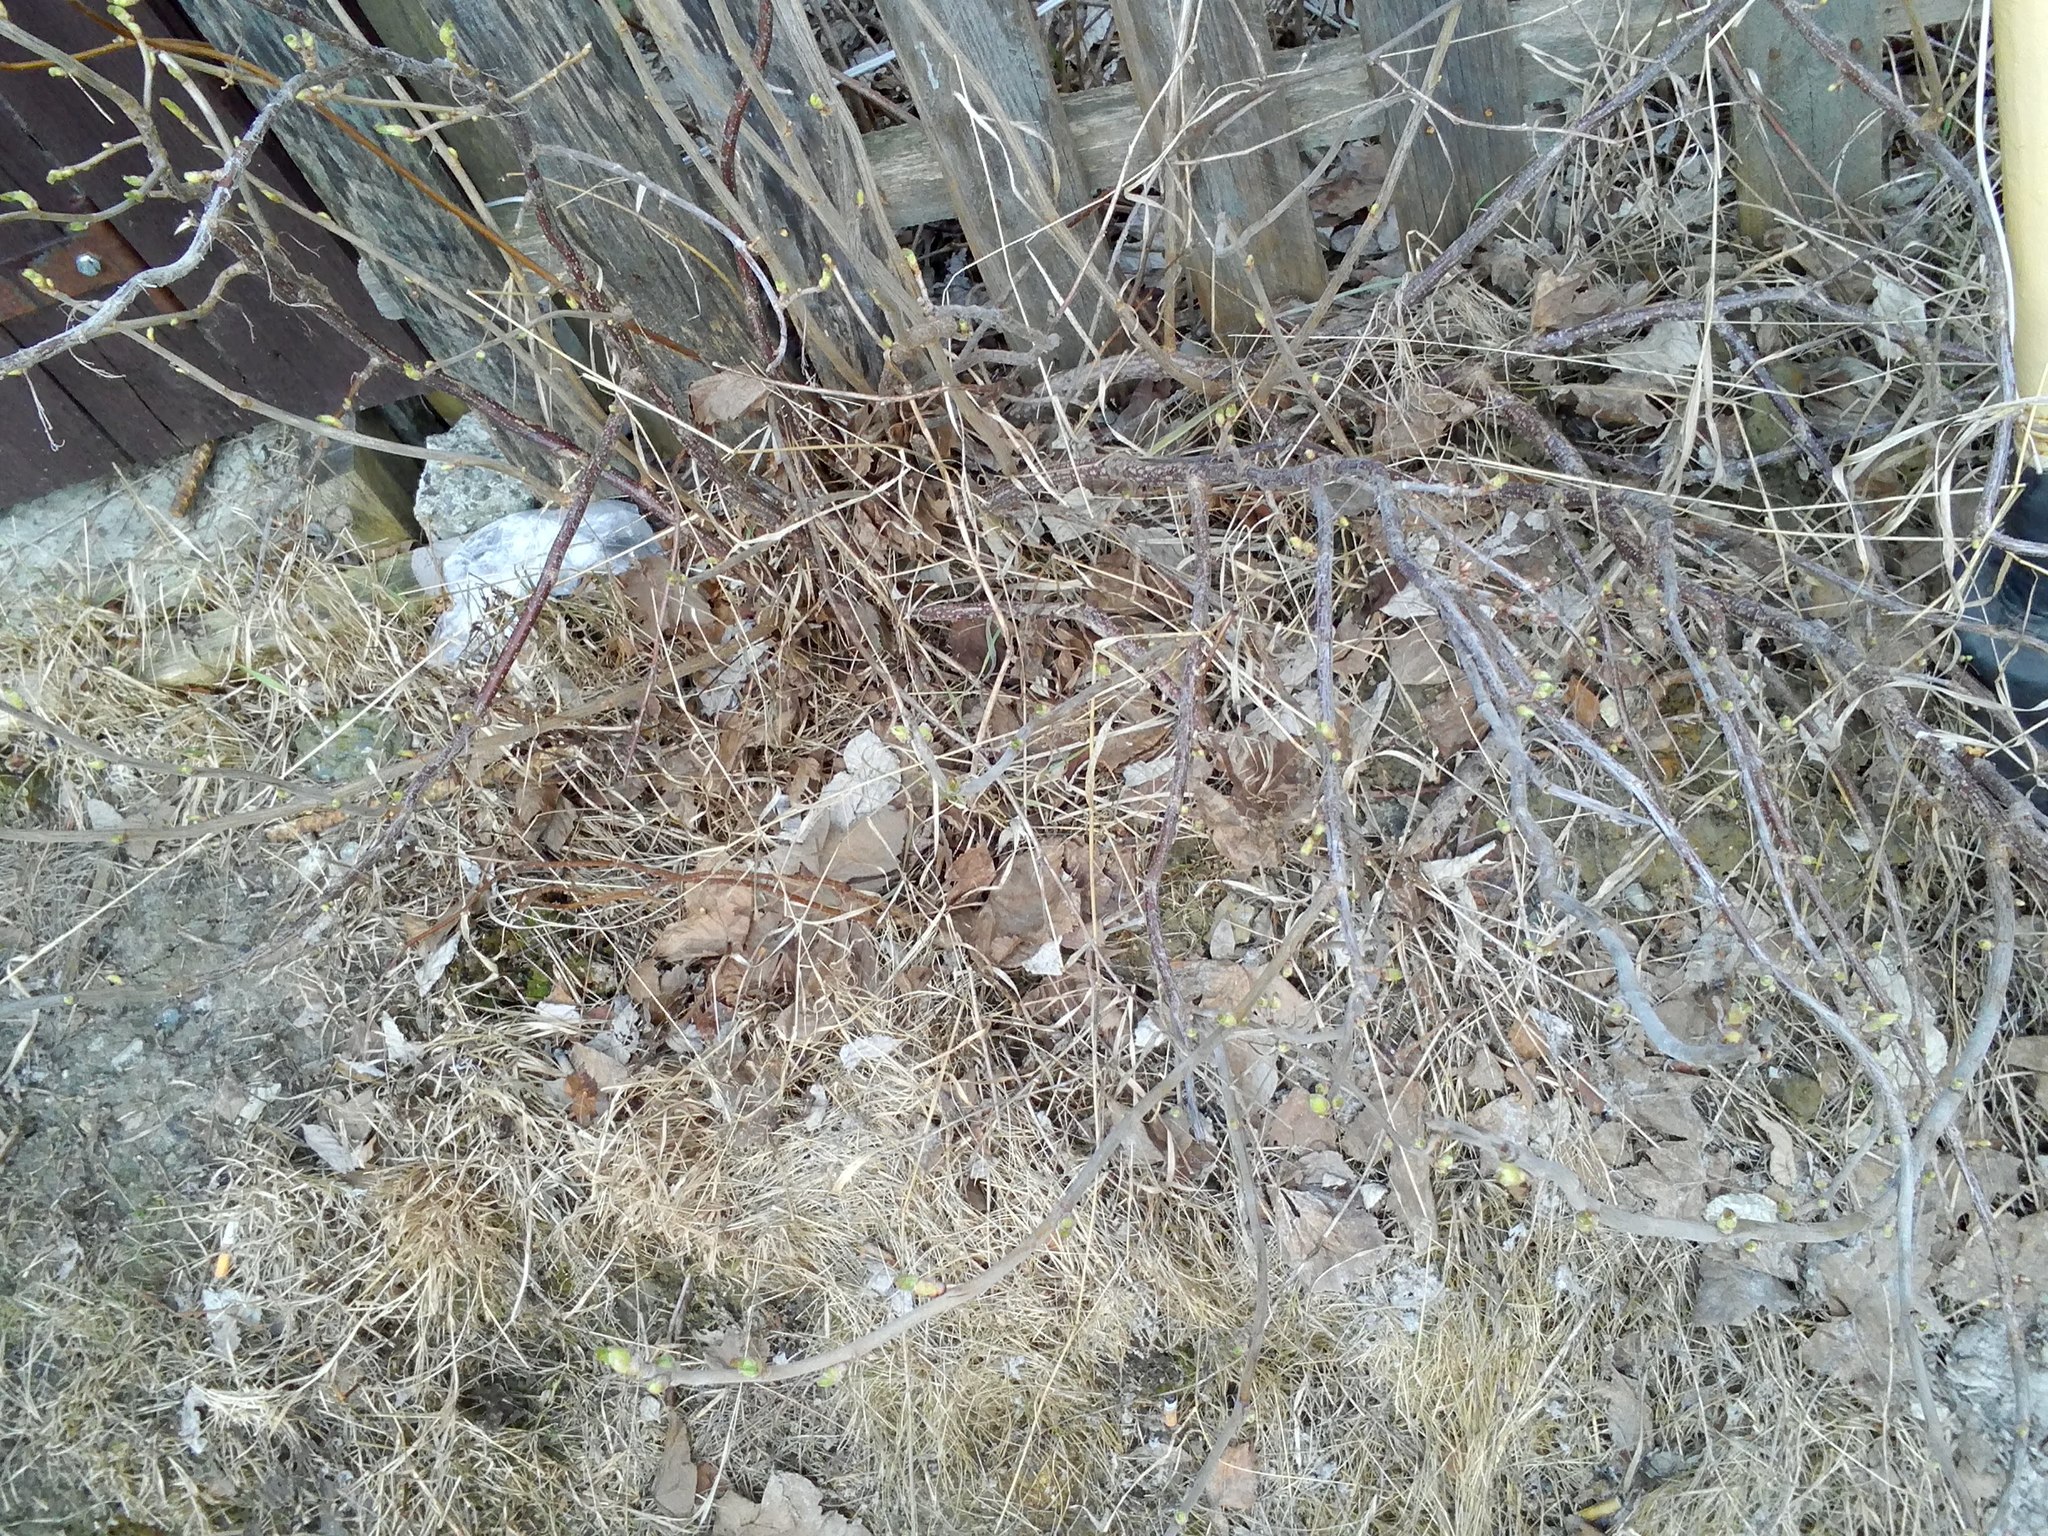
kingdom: Plantae
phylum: Tracheophyta
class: Magnoliopsida
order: Saxifragales
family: Grossulariaceae
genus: Ribes
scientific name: Ribes nigrum
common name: Black currant
